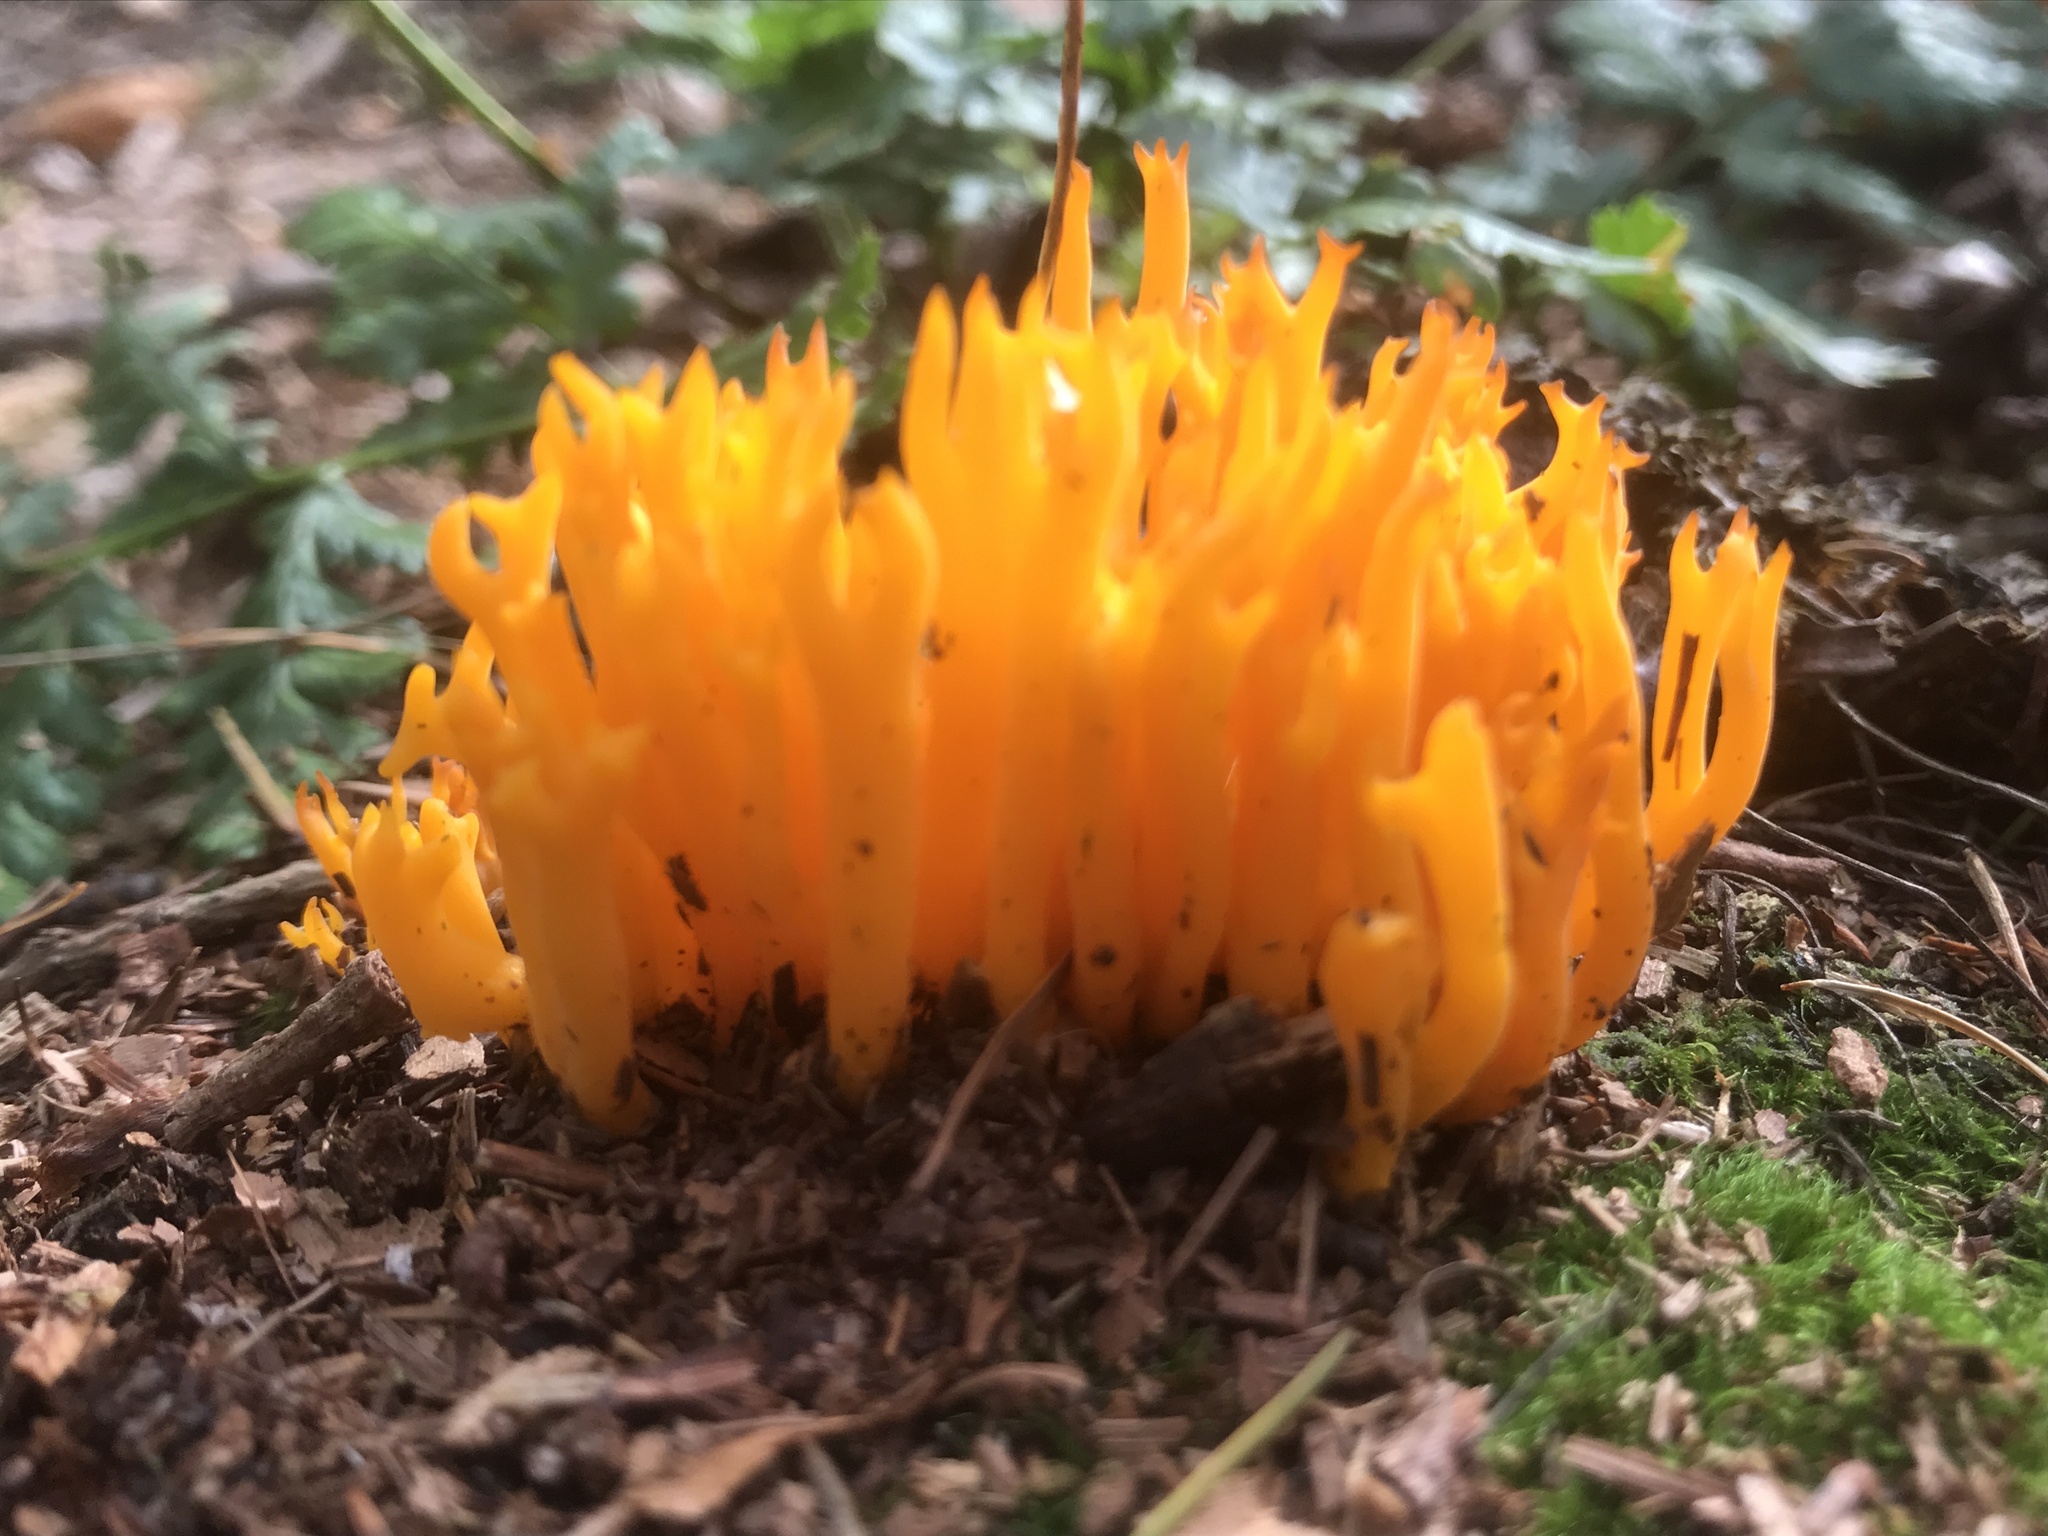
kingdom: Fungi
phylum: Basidiomycota
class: Dacrymycetes
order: Dacrymycetales
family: Dacrymycetaceae
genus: Calocera
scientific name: Calocera viscosa
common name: Yellow stagshorn
